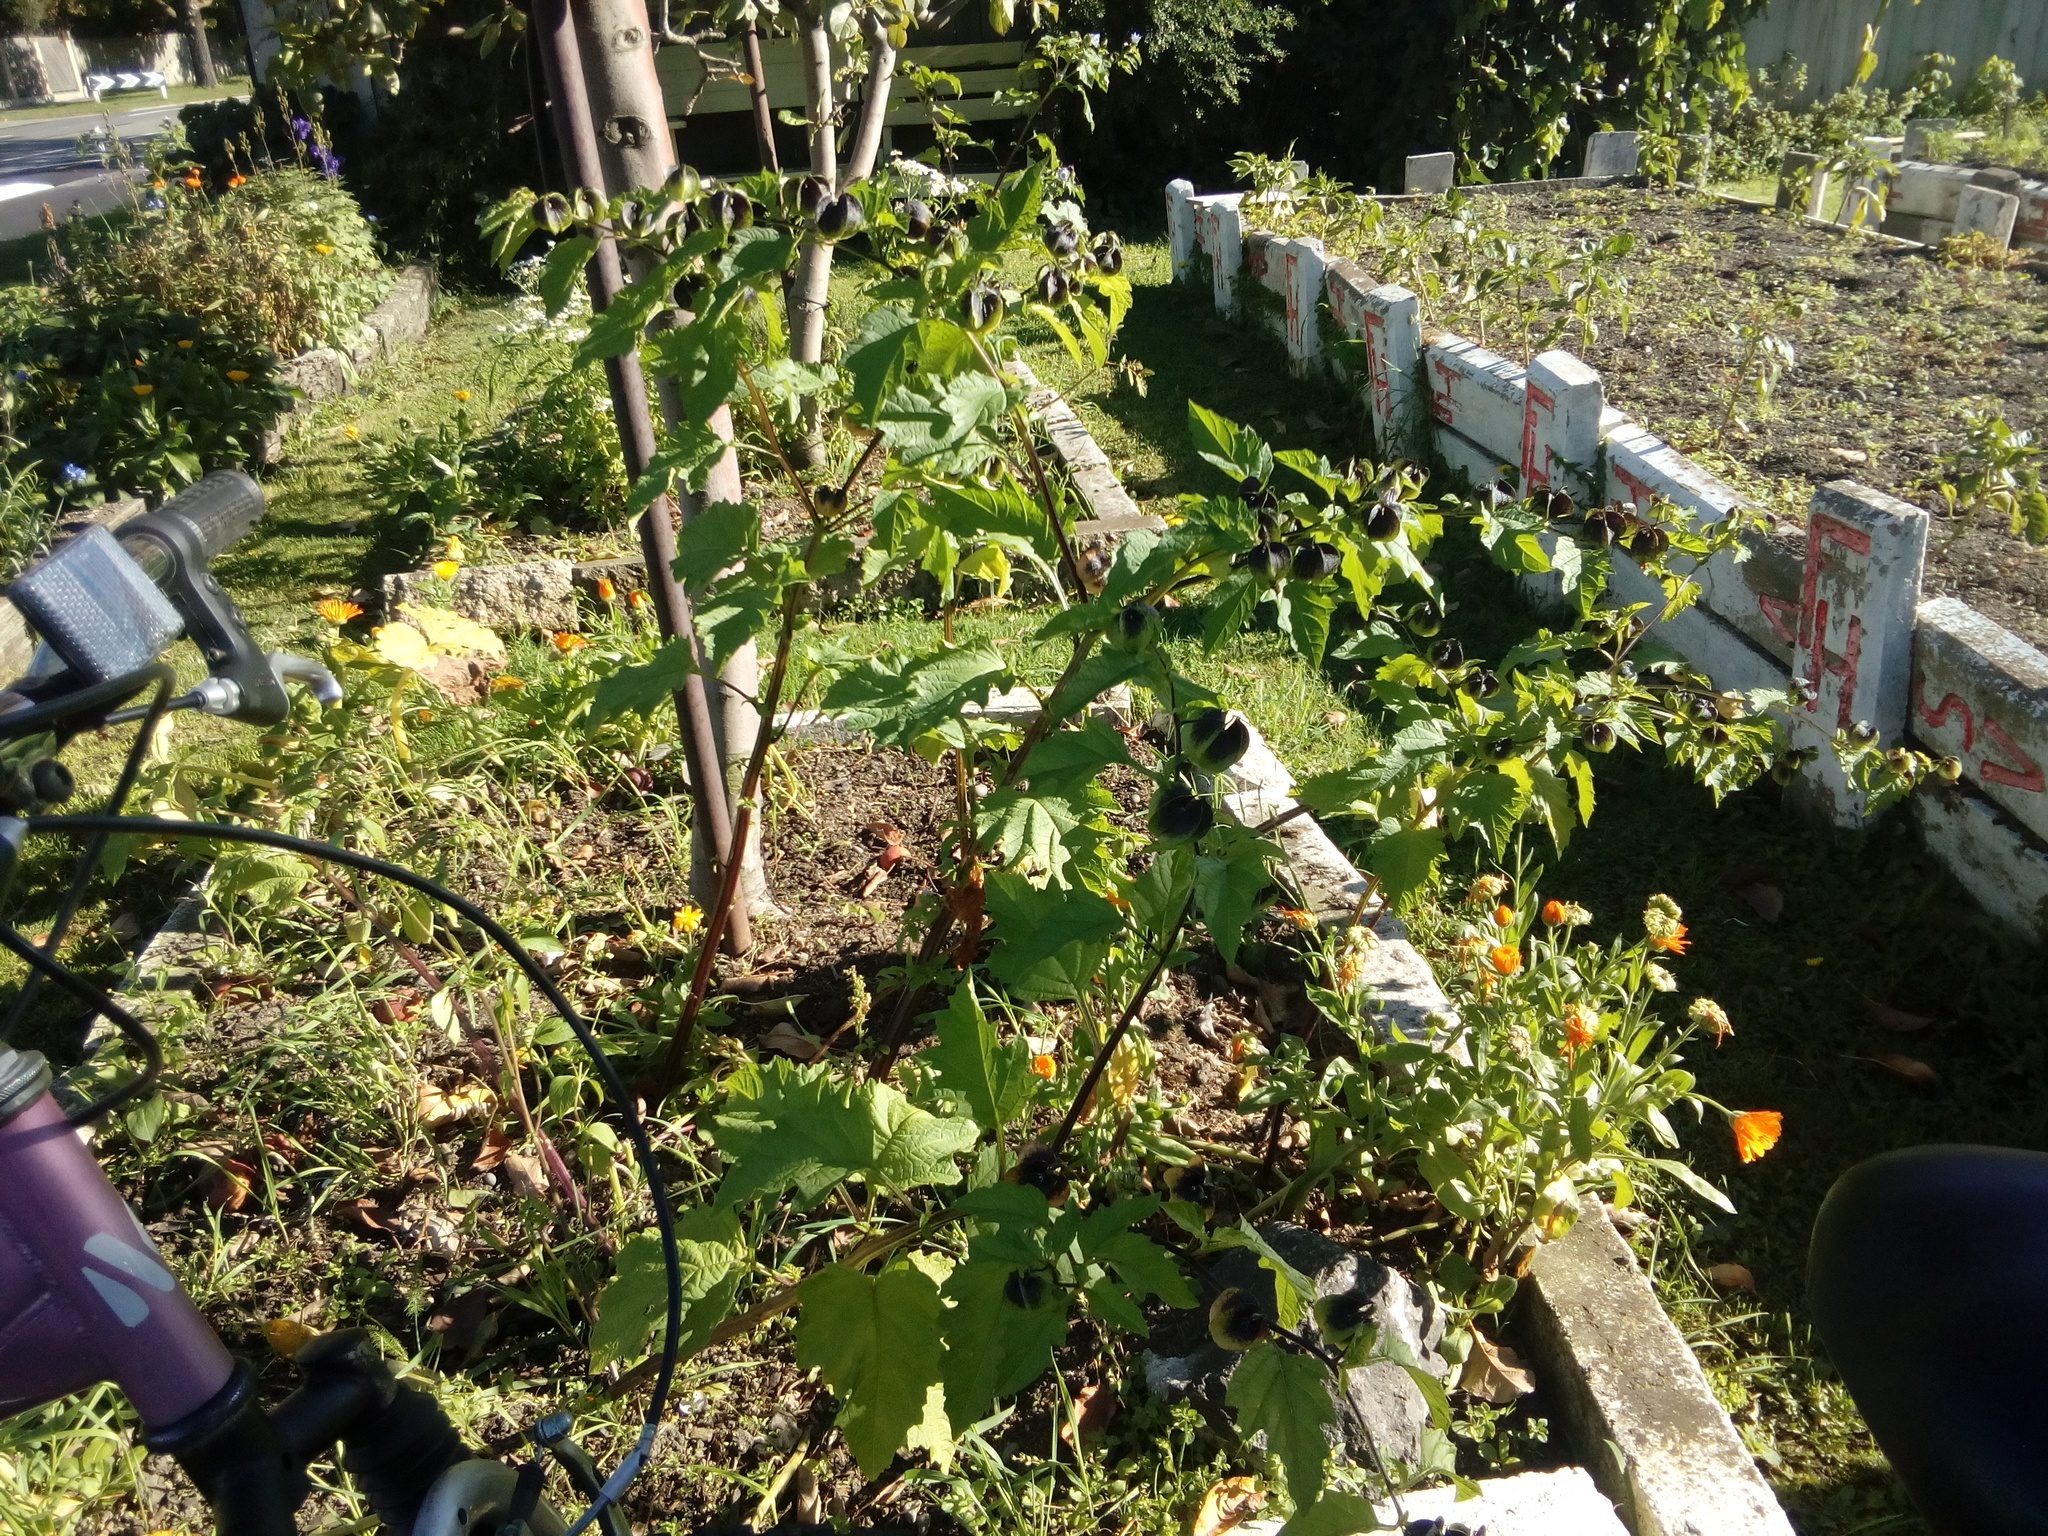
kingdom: Plantae
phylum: Tracheophyta
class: Magnoliopsida
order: Solanales
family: Solanaceae
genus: Nicandra
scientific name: Nicandra physalodes
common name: Apple-of-peru
